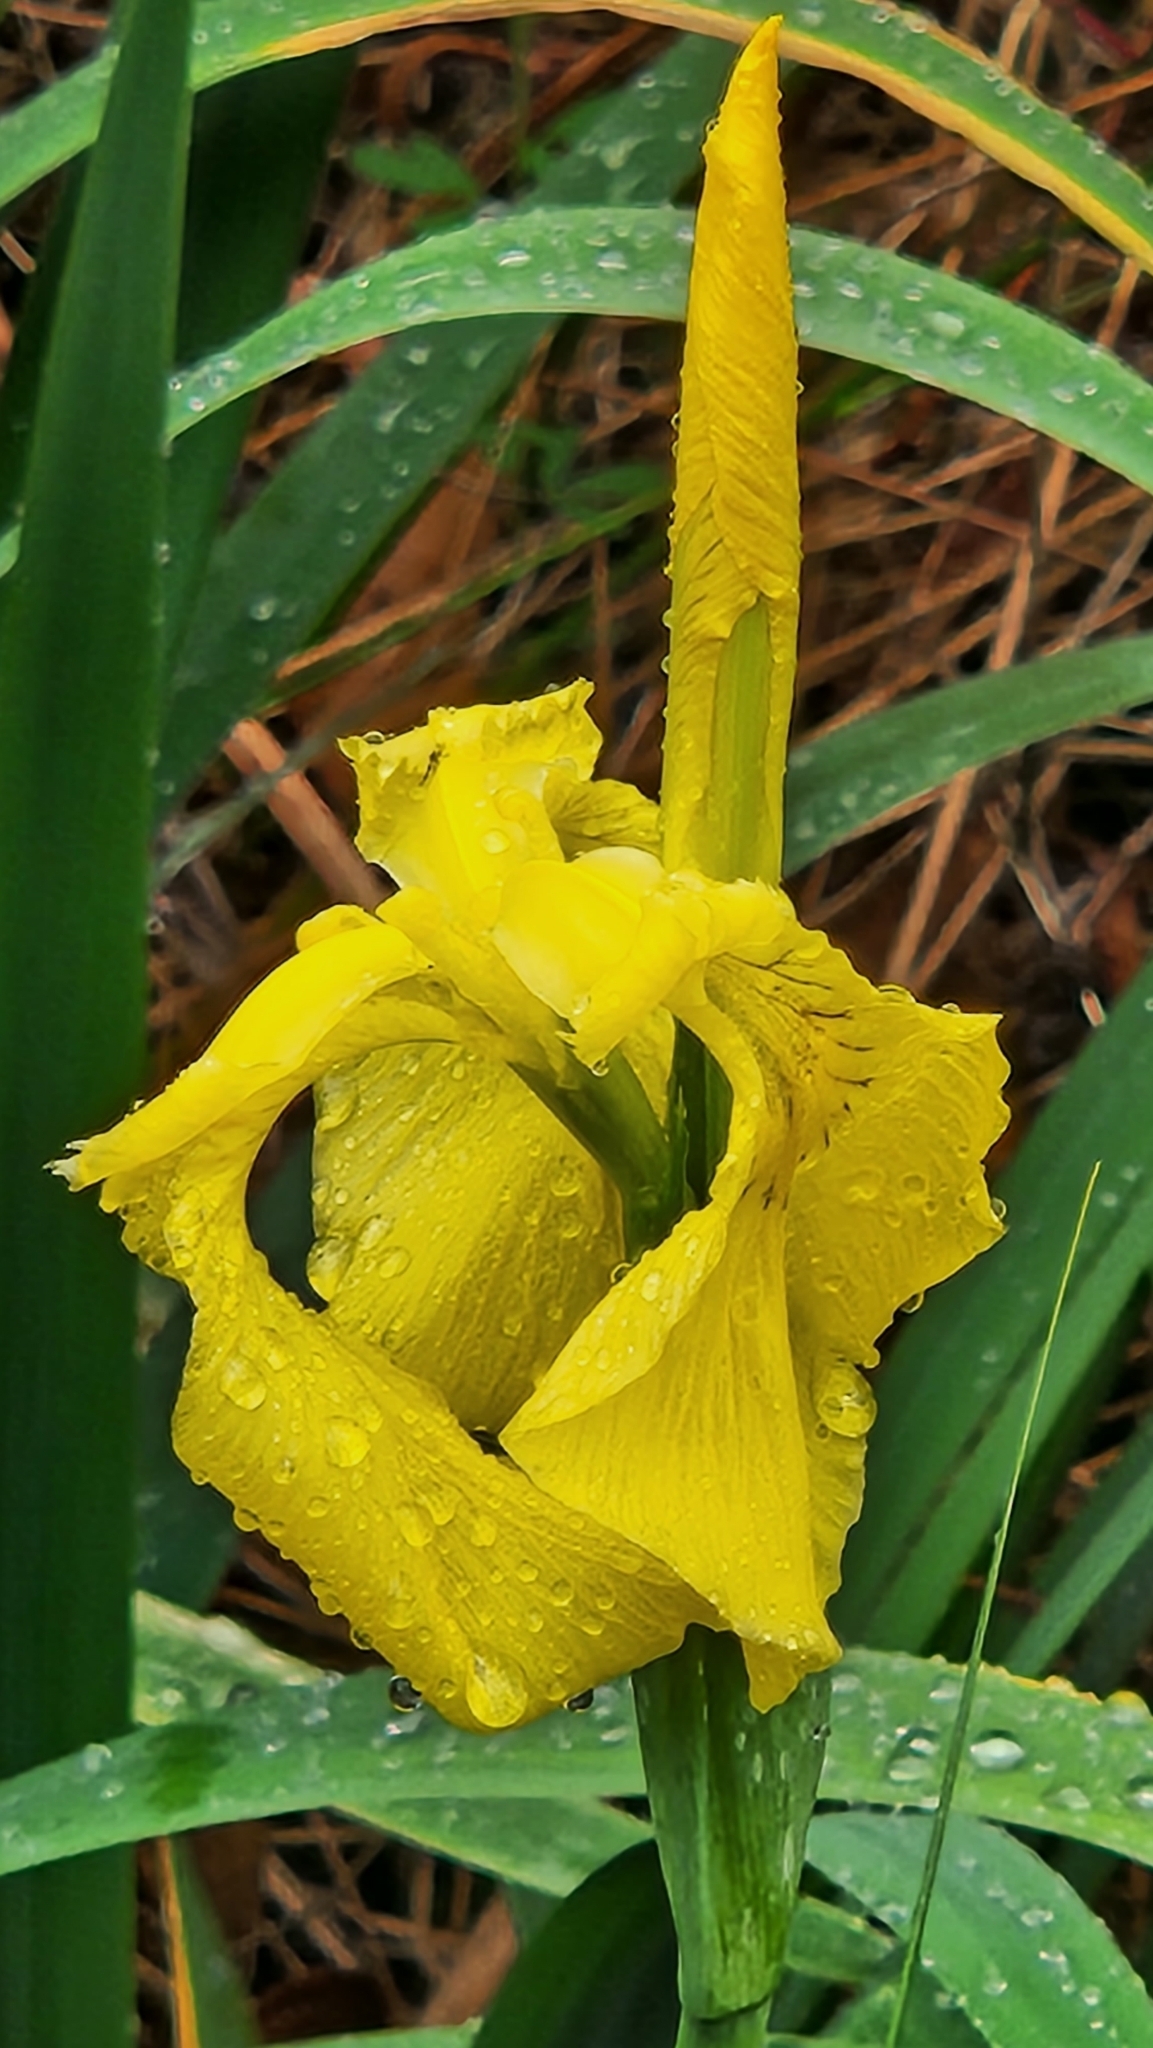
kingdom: Plantae
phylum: Tracheophyta
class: Liliopsida
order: Asparagales
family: Iridaceae
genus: Iris
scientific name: Iris pseudacorus
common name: Yellow flag
